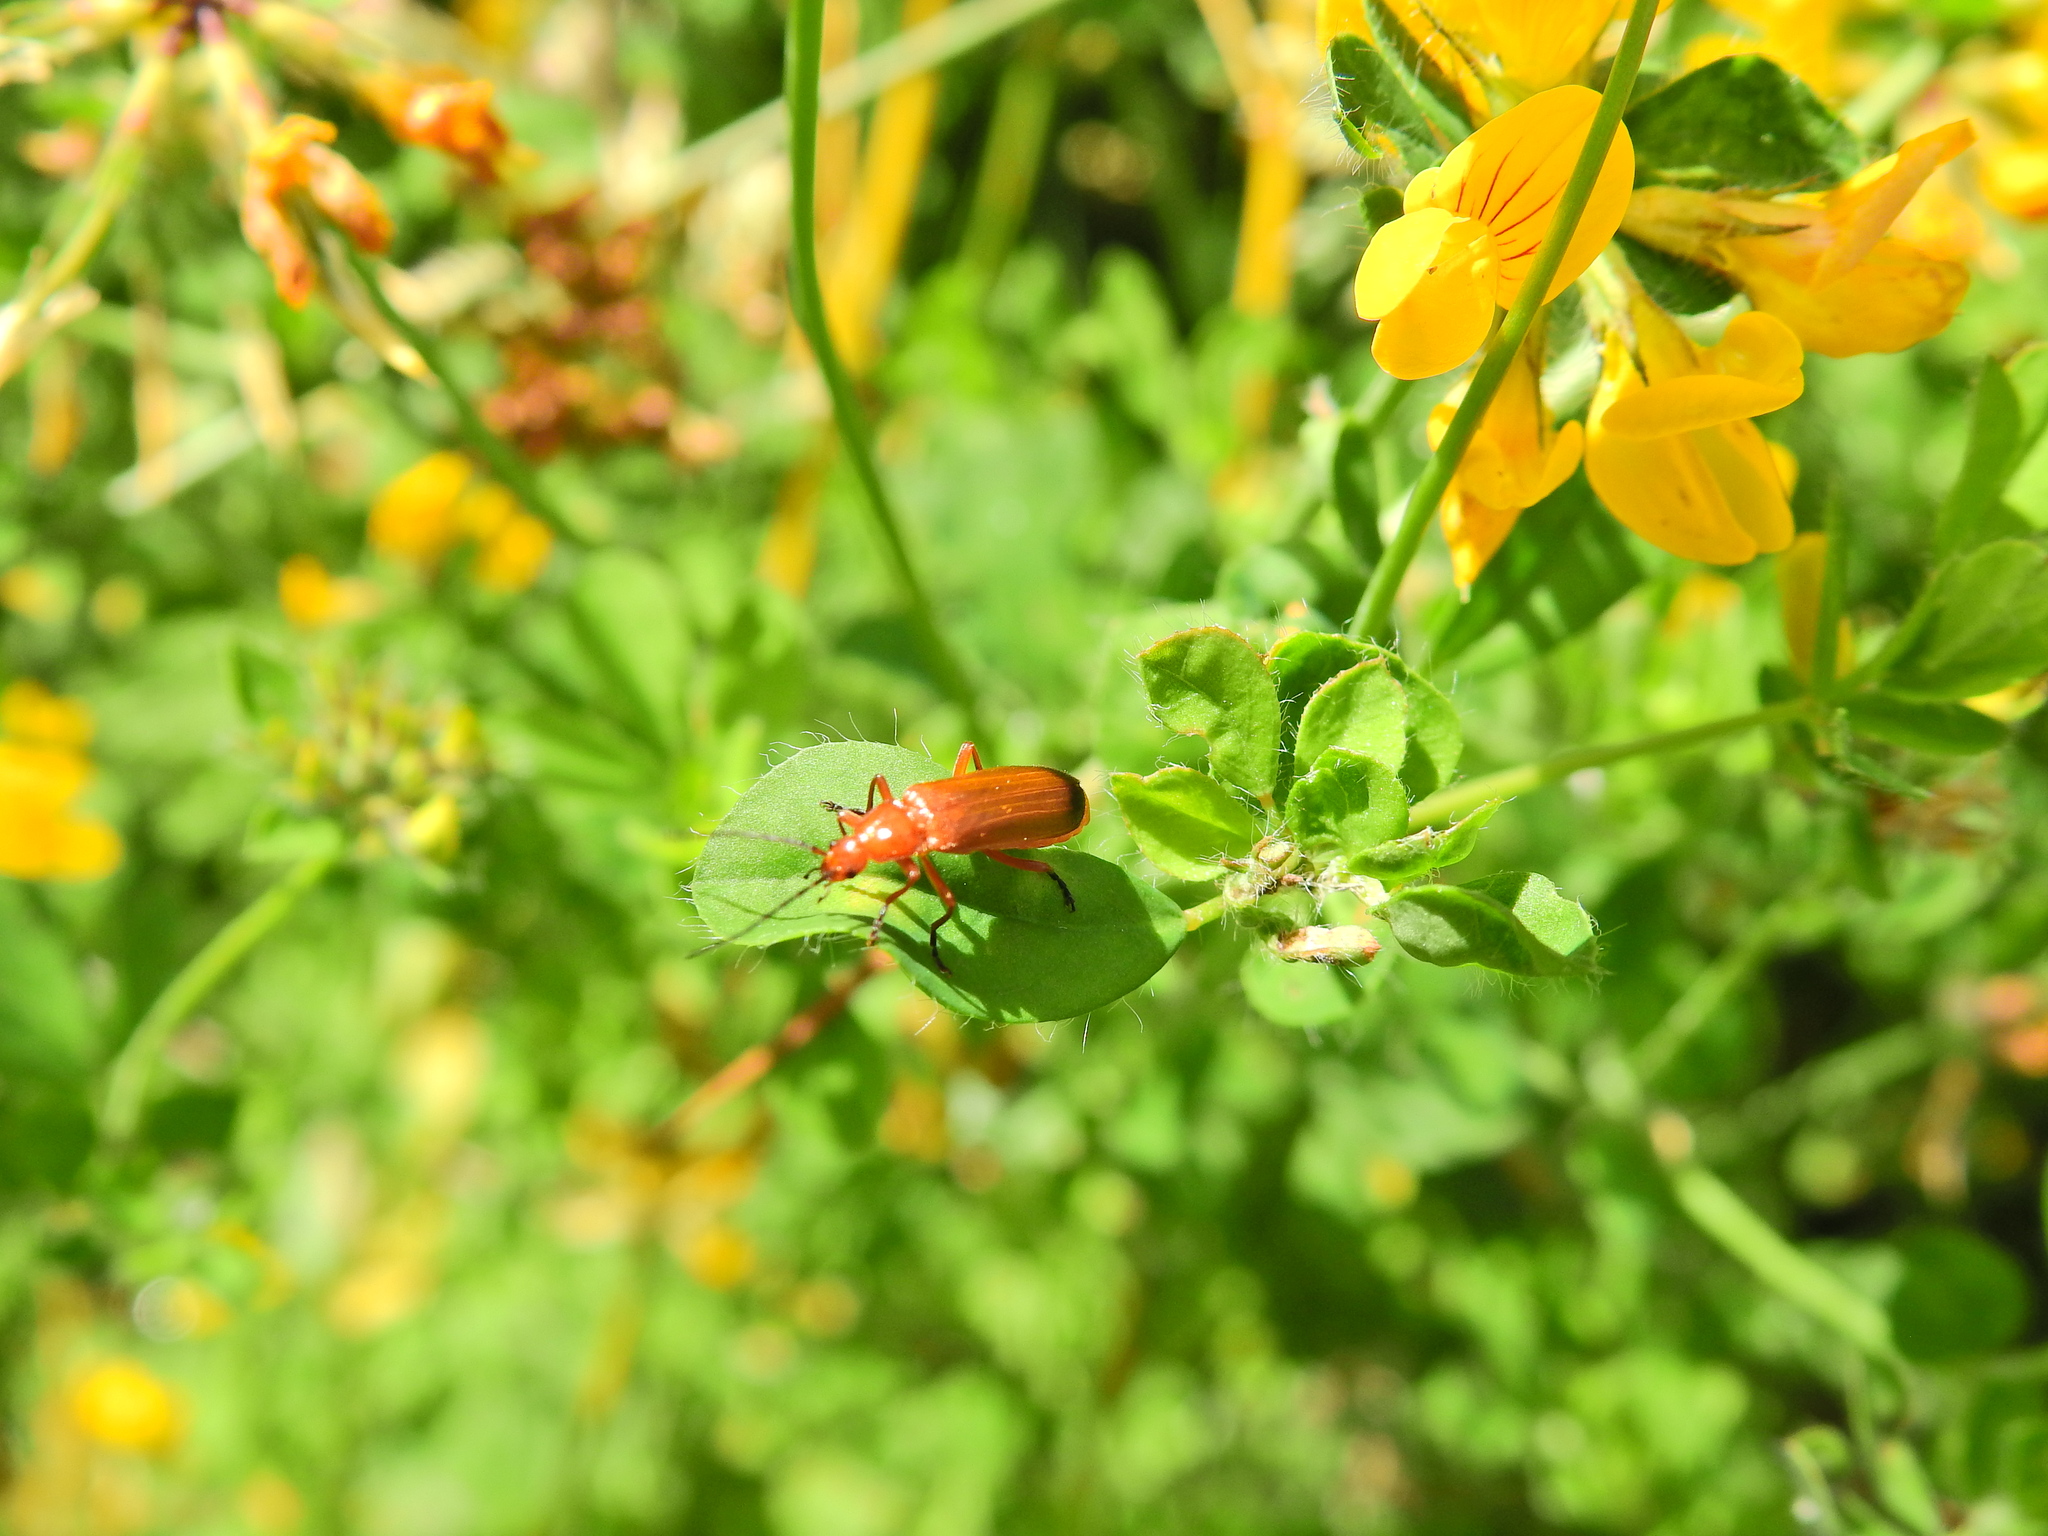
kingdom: Animalia
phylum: Arthropoda
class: Insecta
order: Coleoptera
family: Cantharidae
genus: Rhagonycha
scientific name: Rhagonycha fulva
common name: Common red soldier beetle
